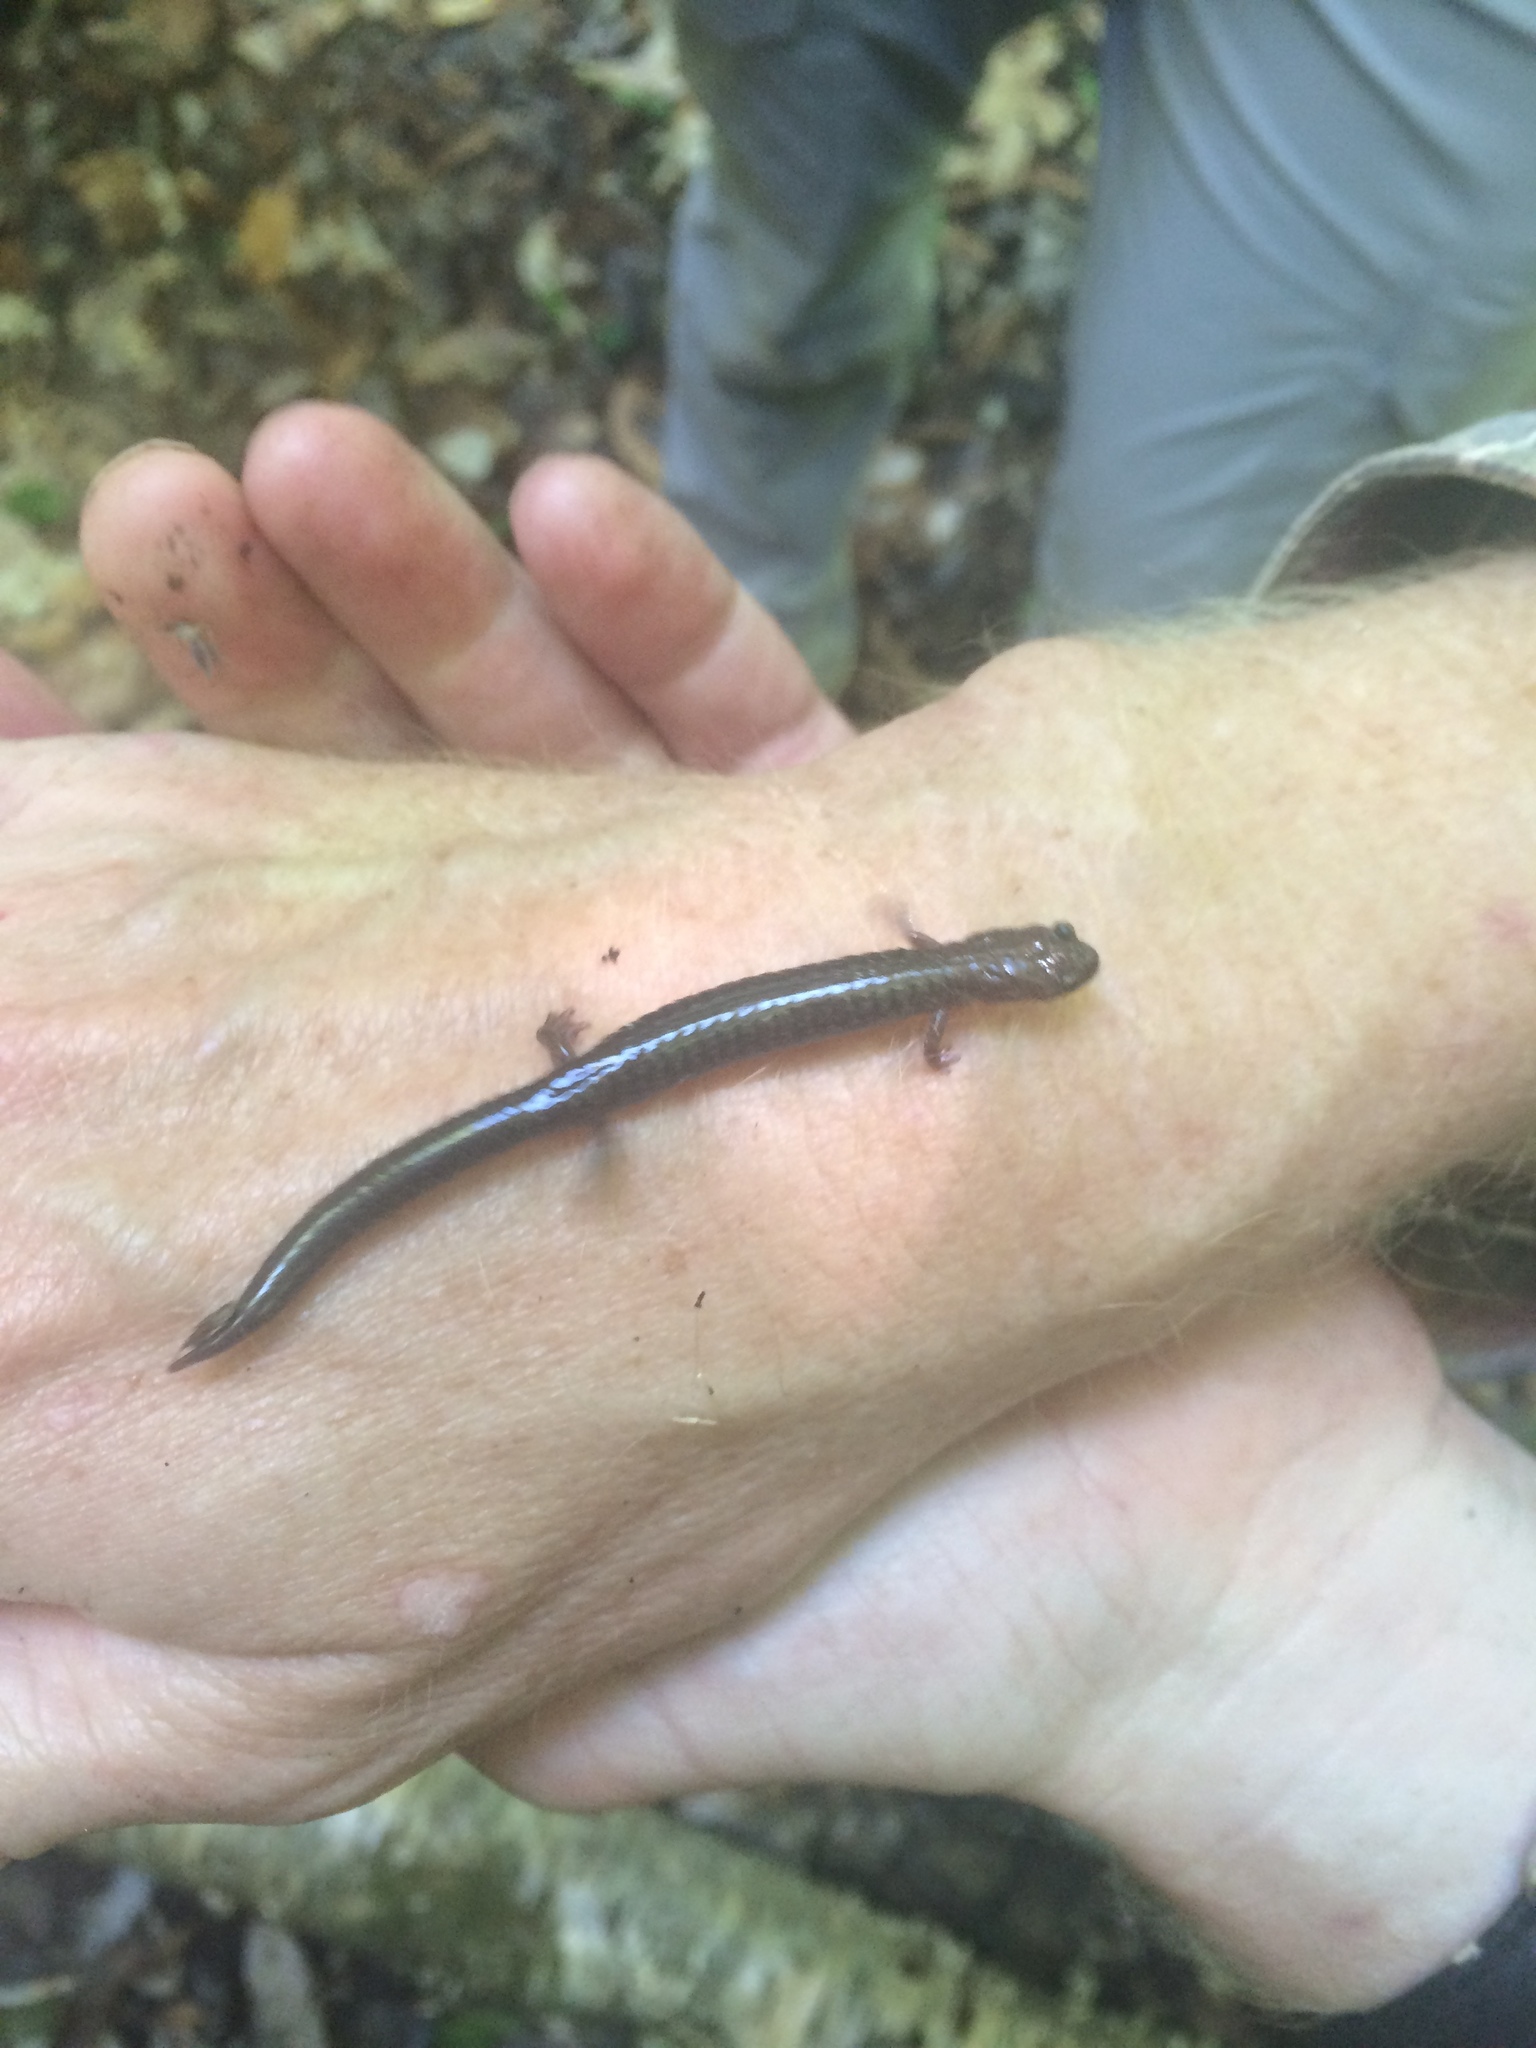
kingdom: Animalia
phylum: Chordata
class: Amphibia
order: Caudata
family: Plethodontidae
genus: Plethodon
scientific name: Plethodon cinereus
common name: Redback salamander
